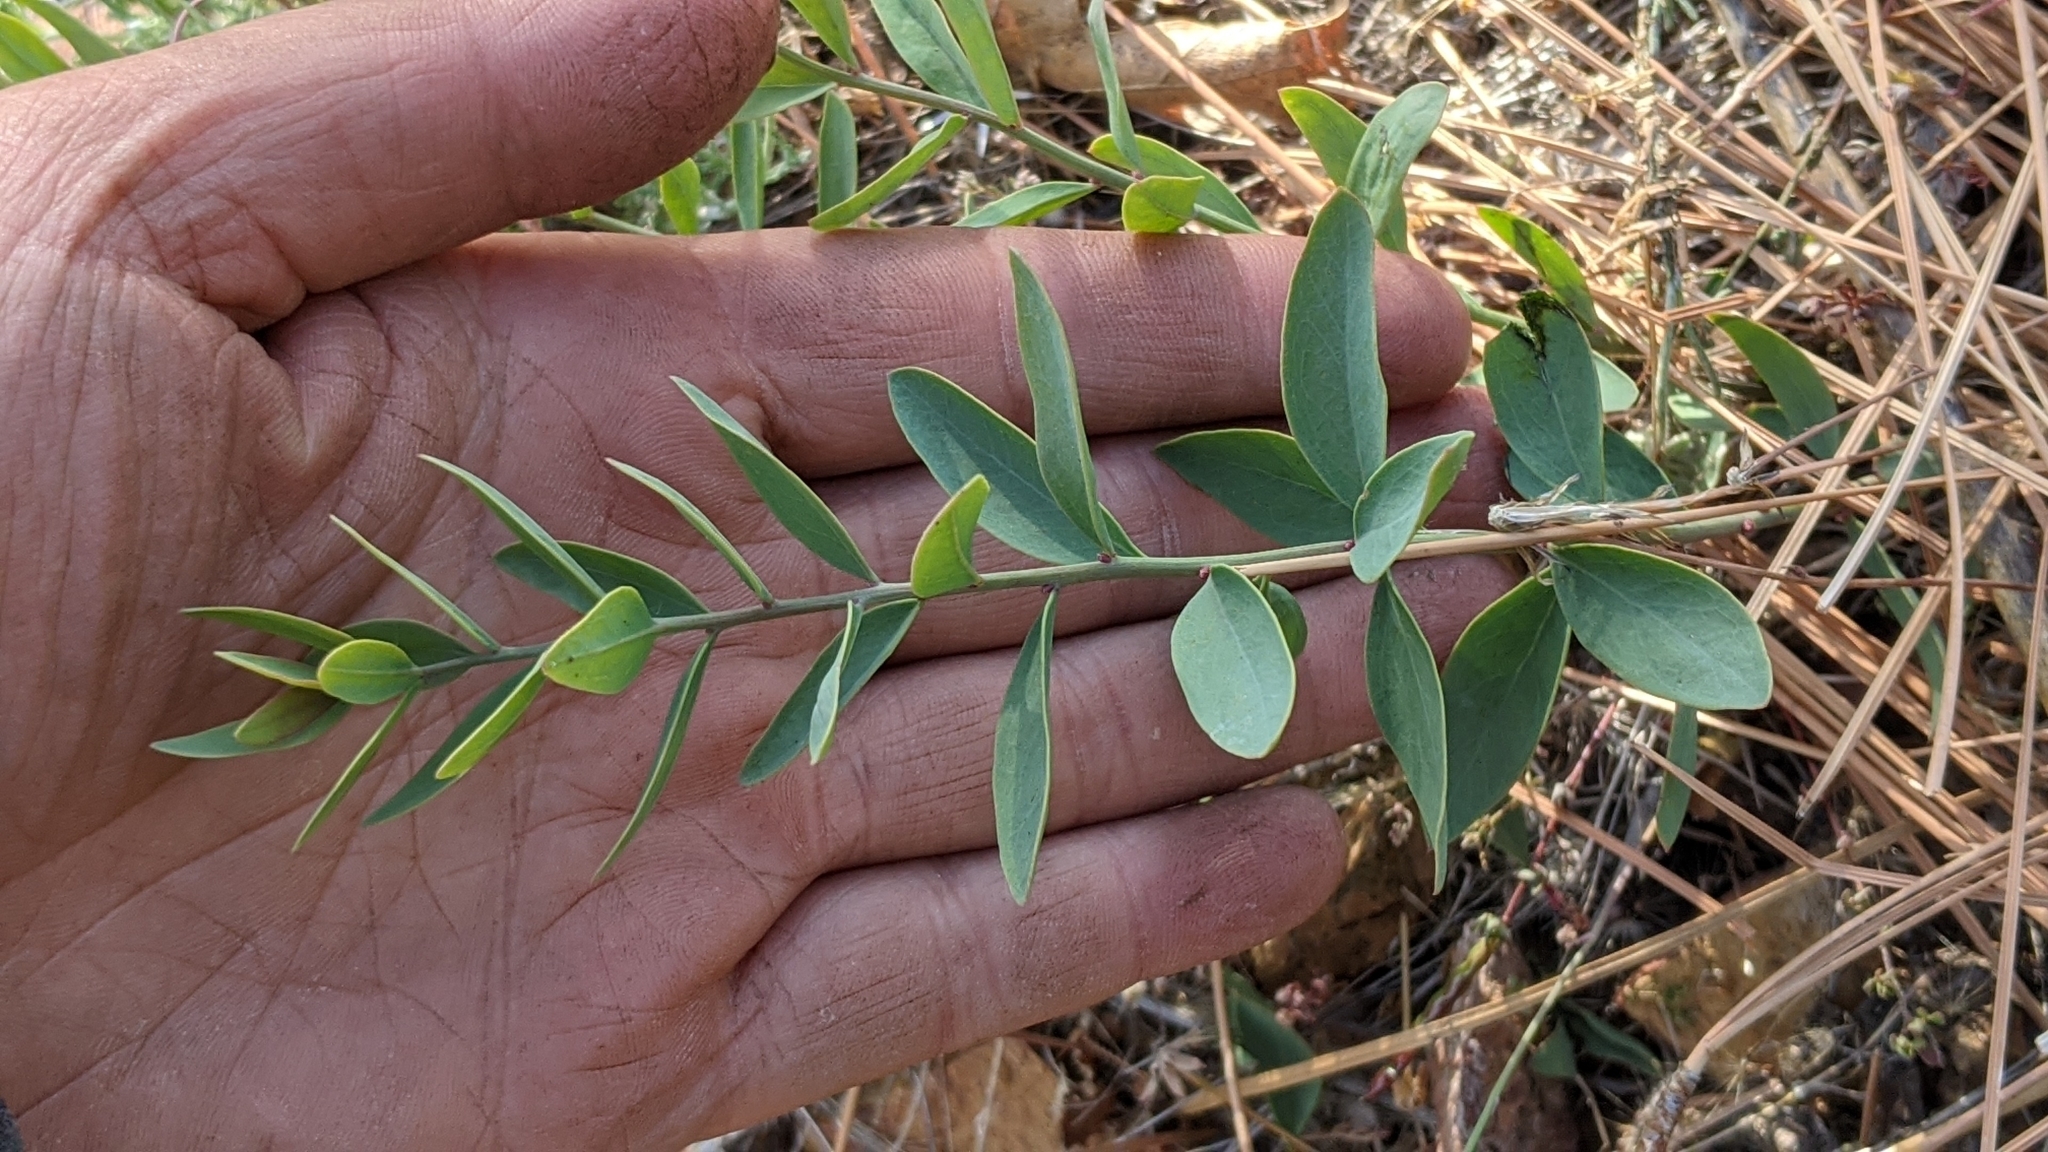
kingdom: Plantae
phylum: Tracheophyta
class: Magnoliopsida
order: Santalales
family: Comandraceae
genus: Comandra
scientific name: Comandra umbellata
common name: Bastard toadflax
